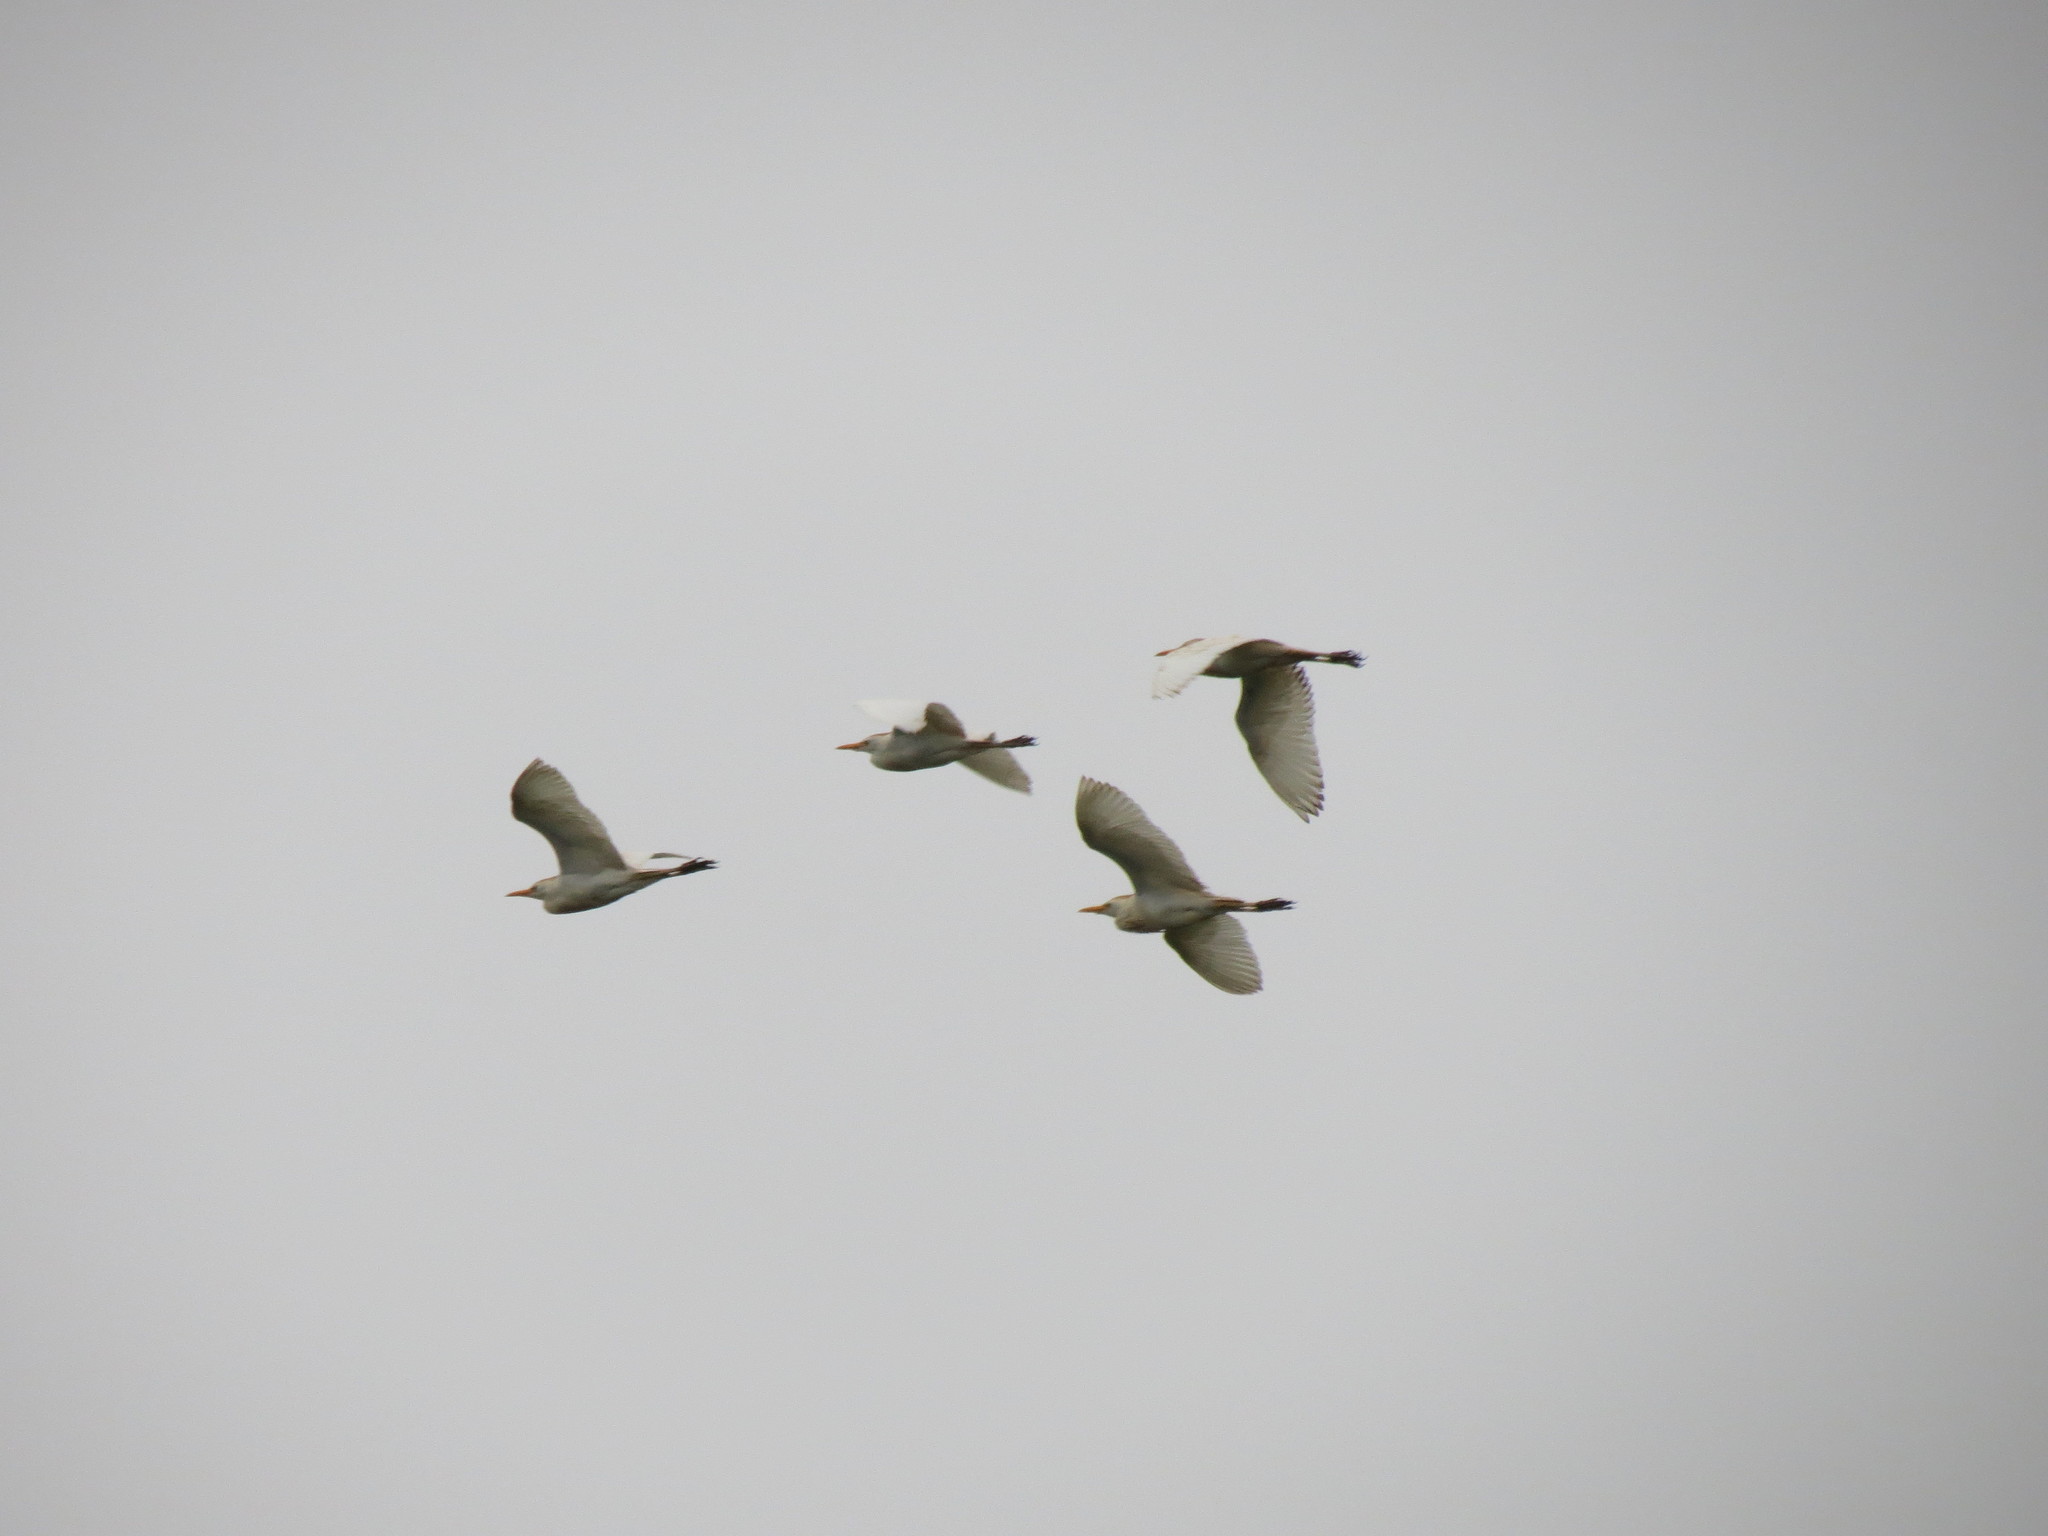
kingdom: Animalia
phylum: Chordata
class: Aves
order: Pelecaniformes
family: Ardeidae
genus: Bubulcus
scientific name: Bubulcus ibis
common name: Cattle egret
